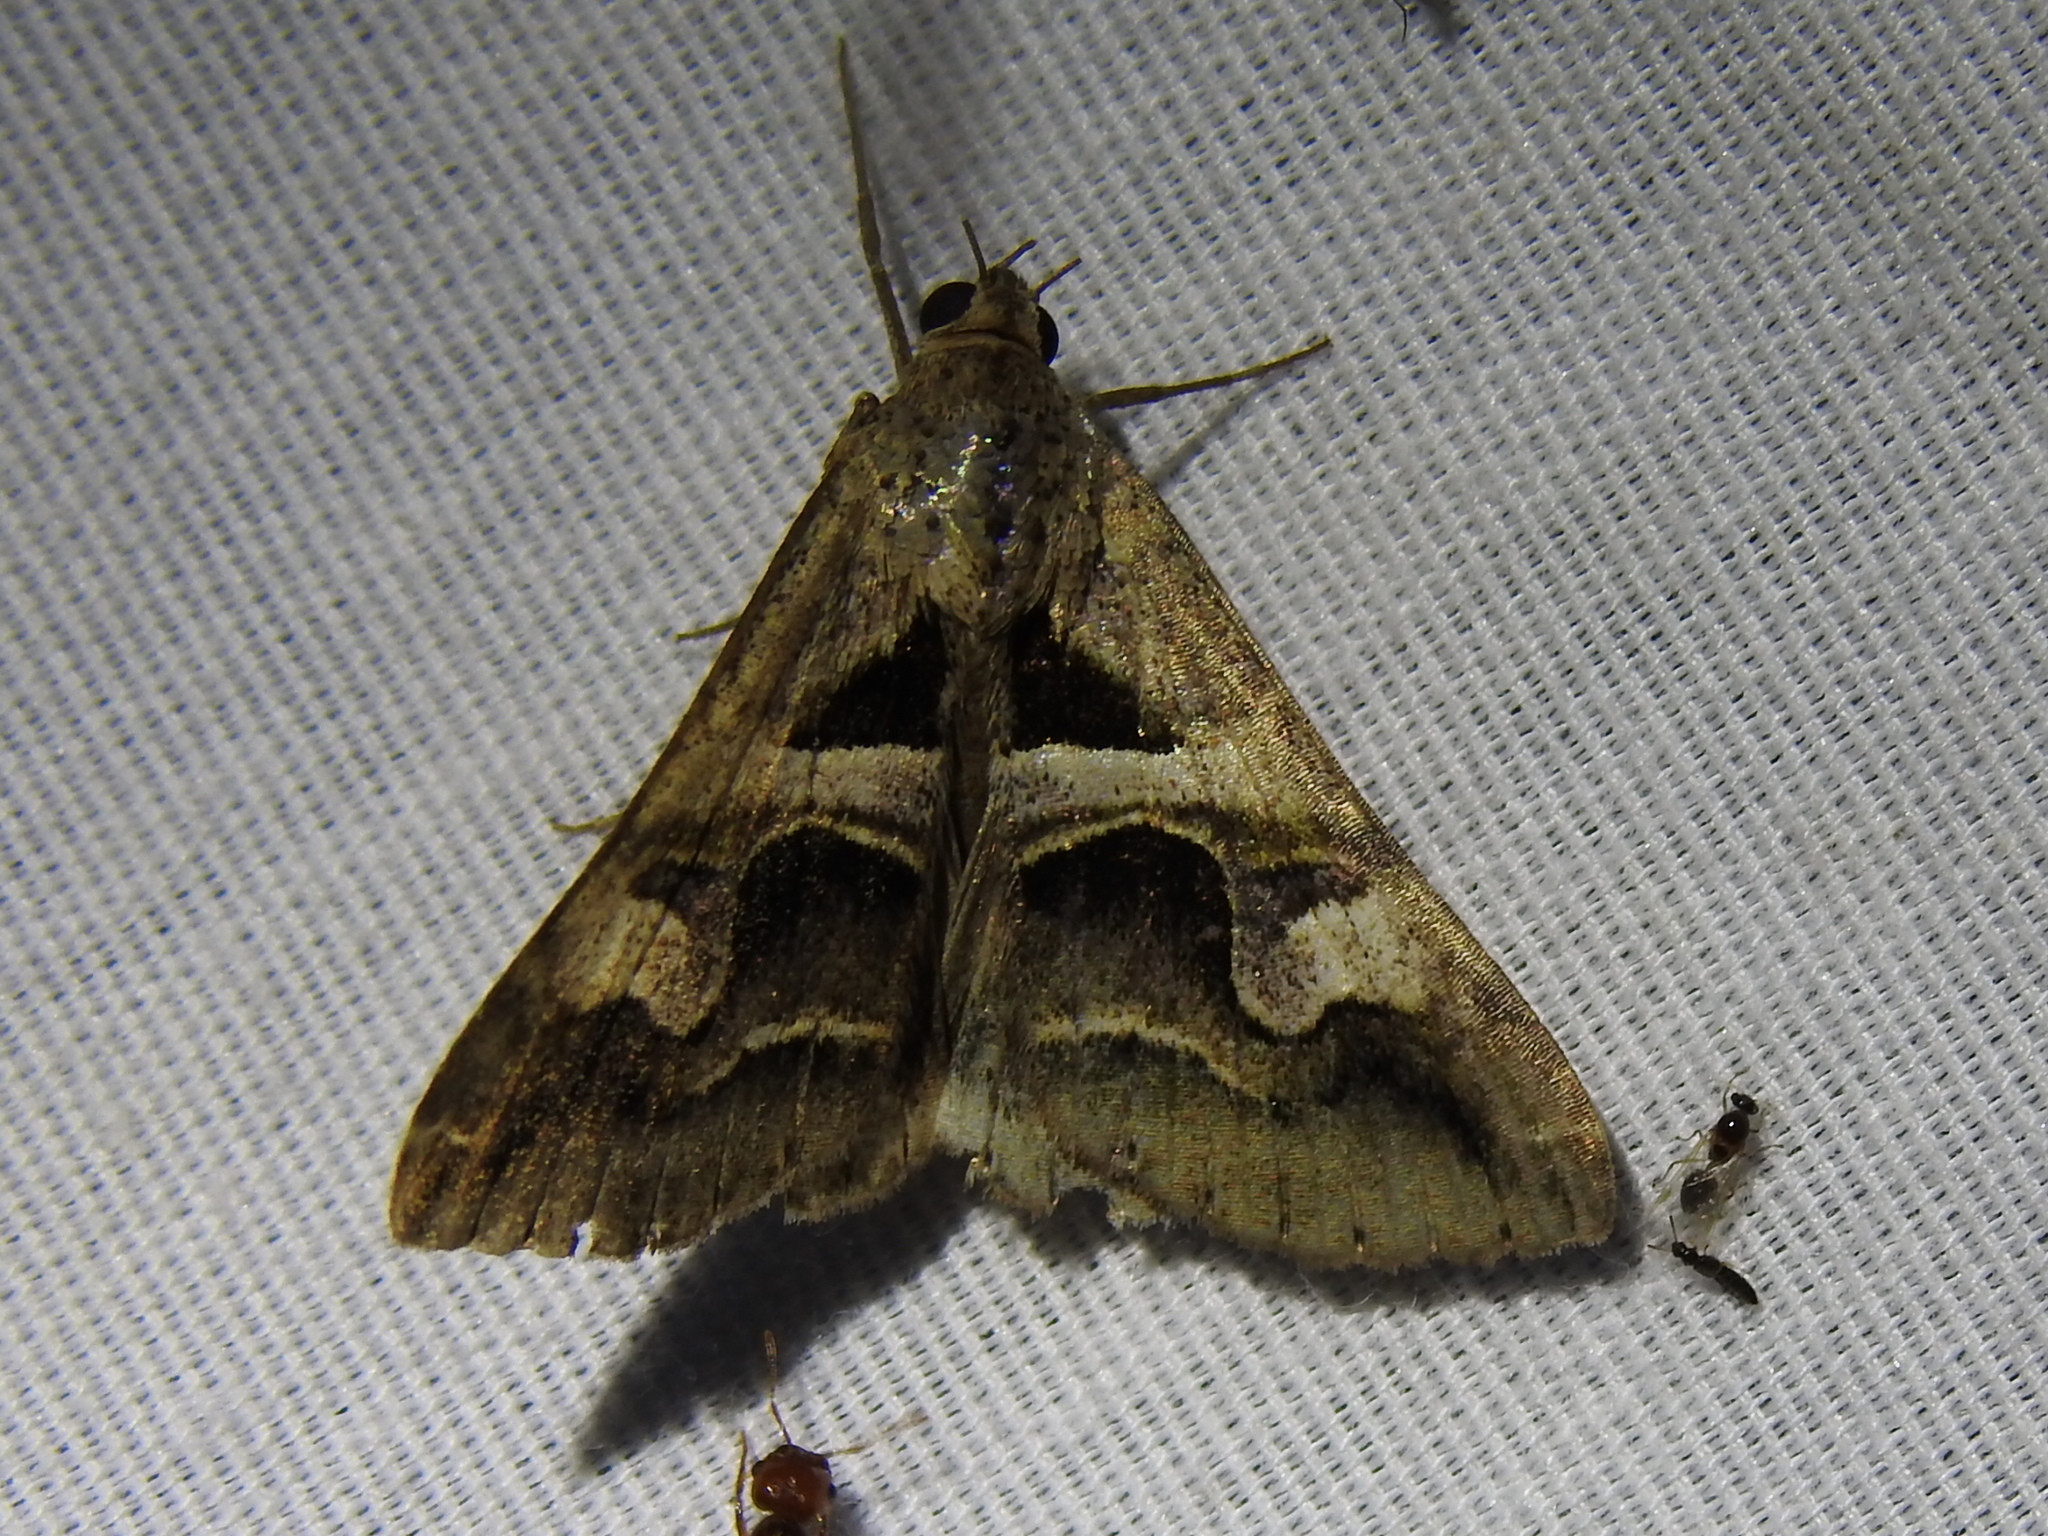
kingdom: Animalia
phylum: Arthropoda
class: Insecta
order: Lepidoptera
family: Erebidae
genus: Melipotis
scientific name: Melipotis cellaris
